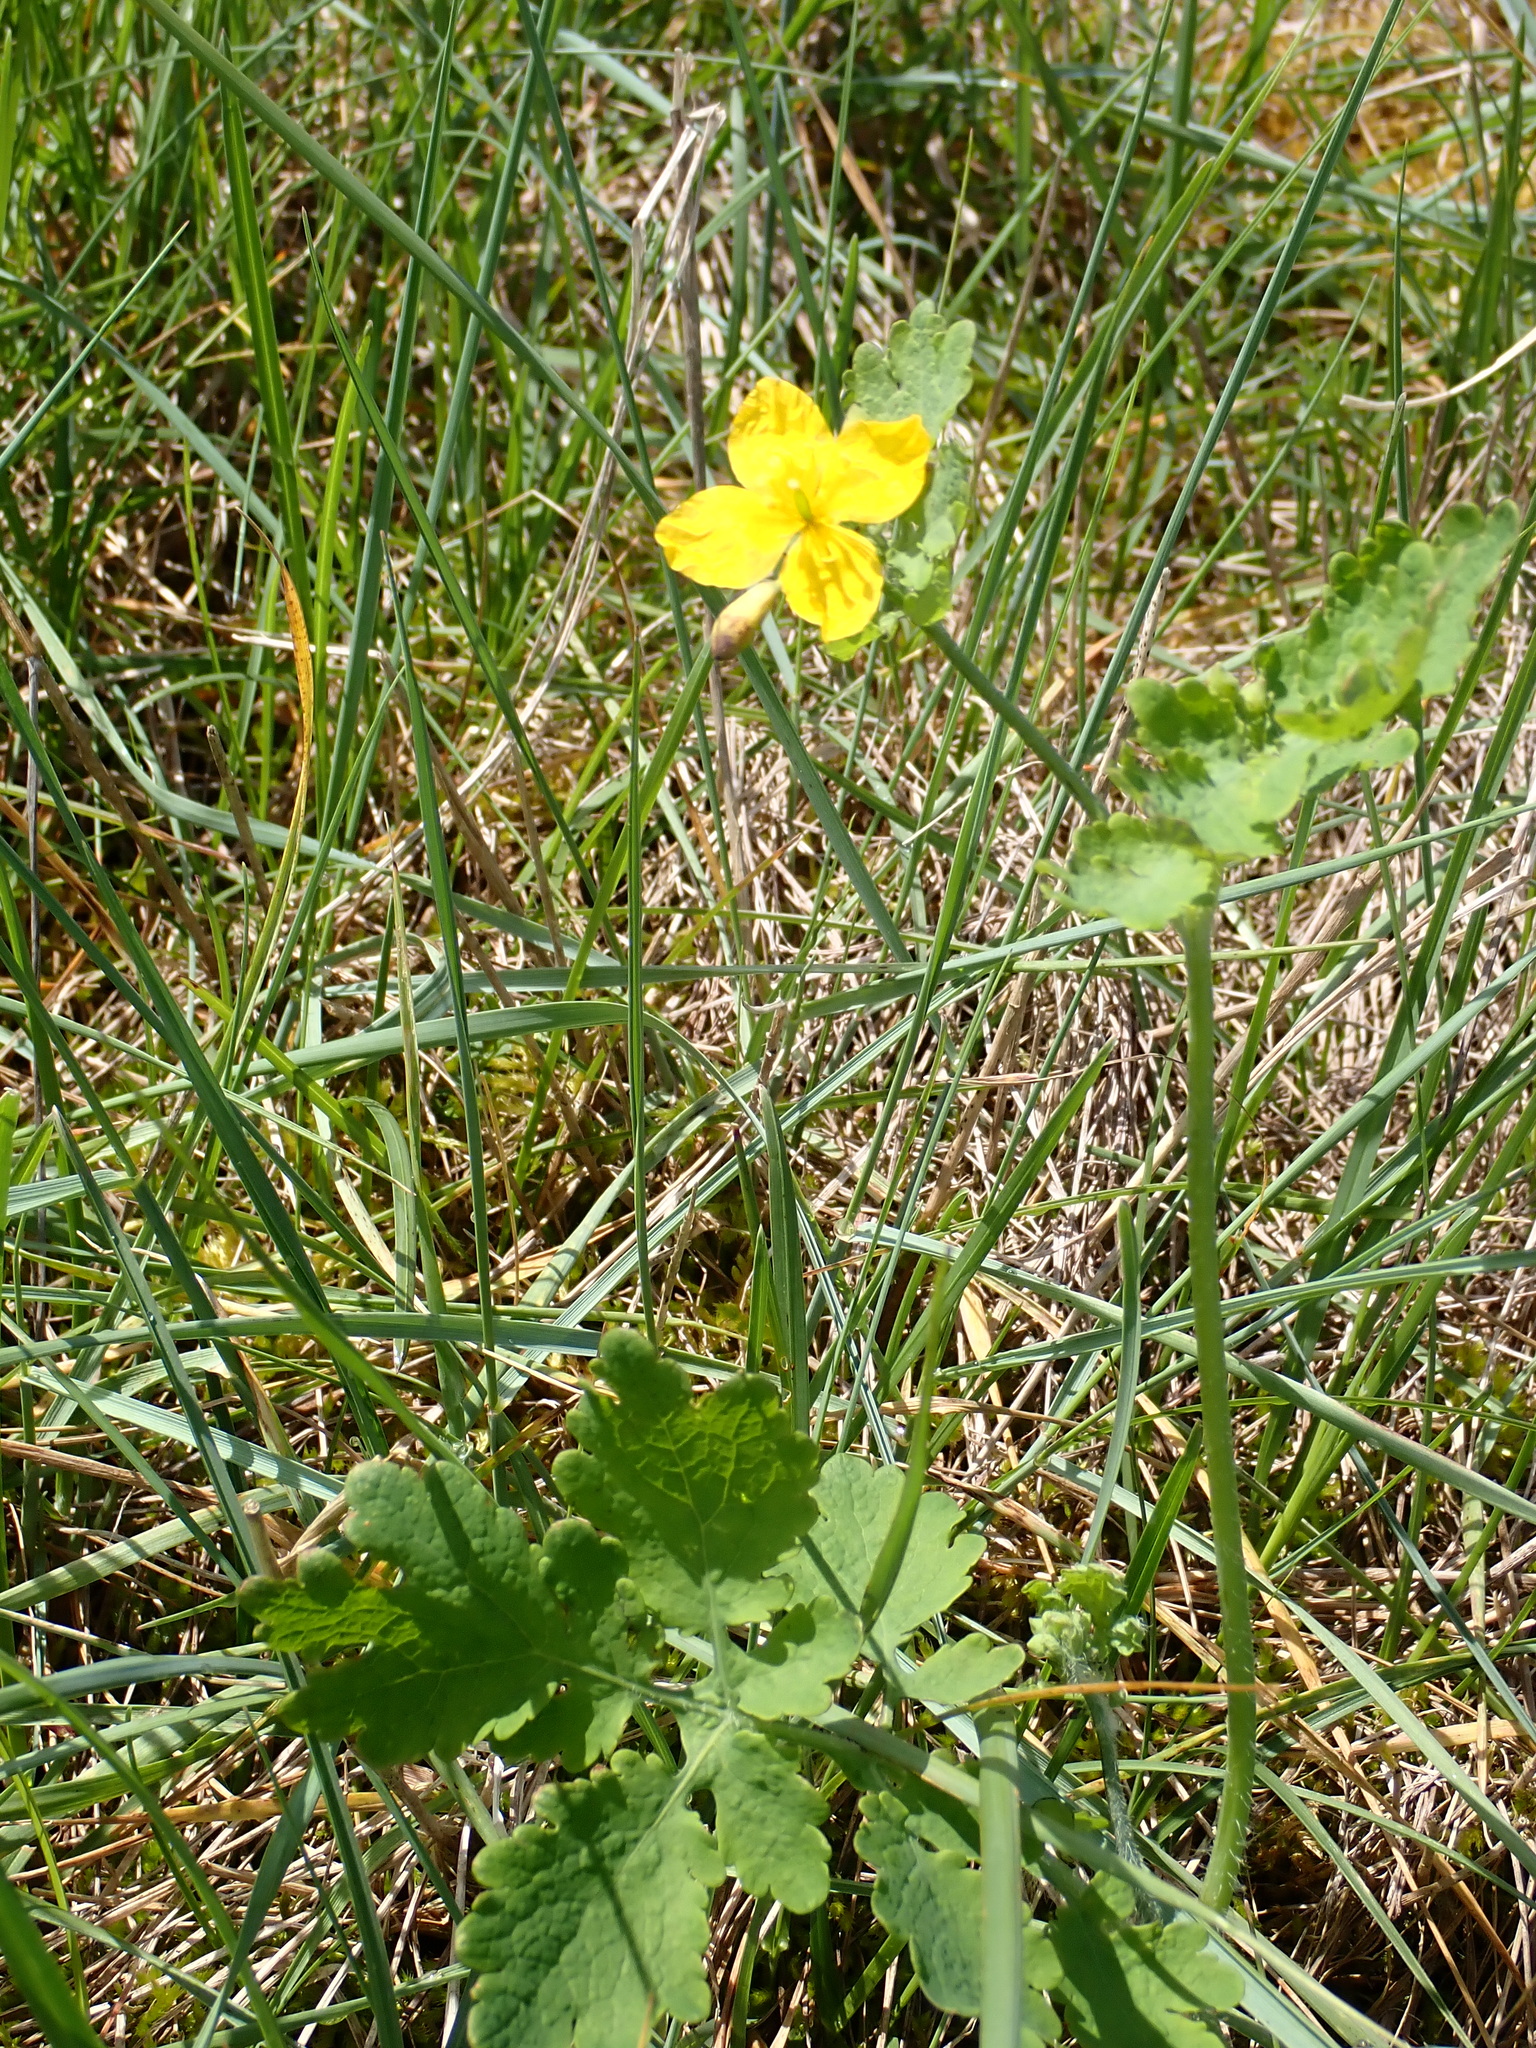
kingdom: Plantae
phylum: Tracheophyta
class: Magnoliopsida
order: Ranunculales
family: Papaveraceae
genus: Chelidonium
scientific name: Chelidonium majus
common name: Greater celandine
